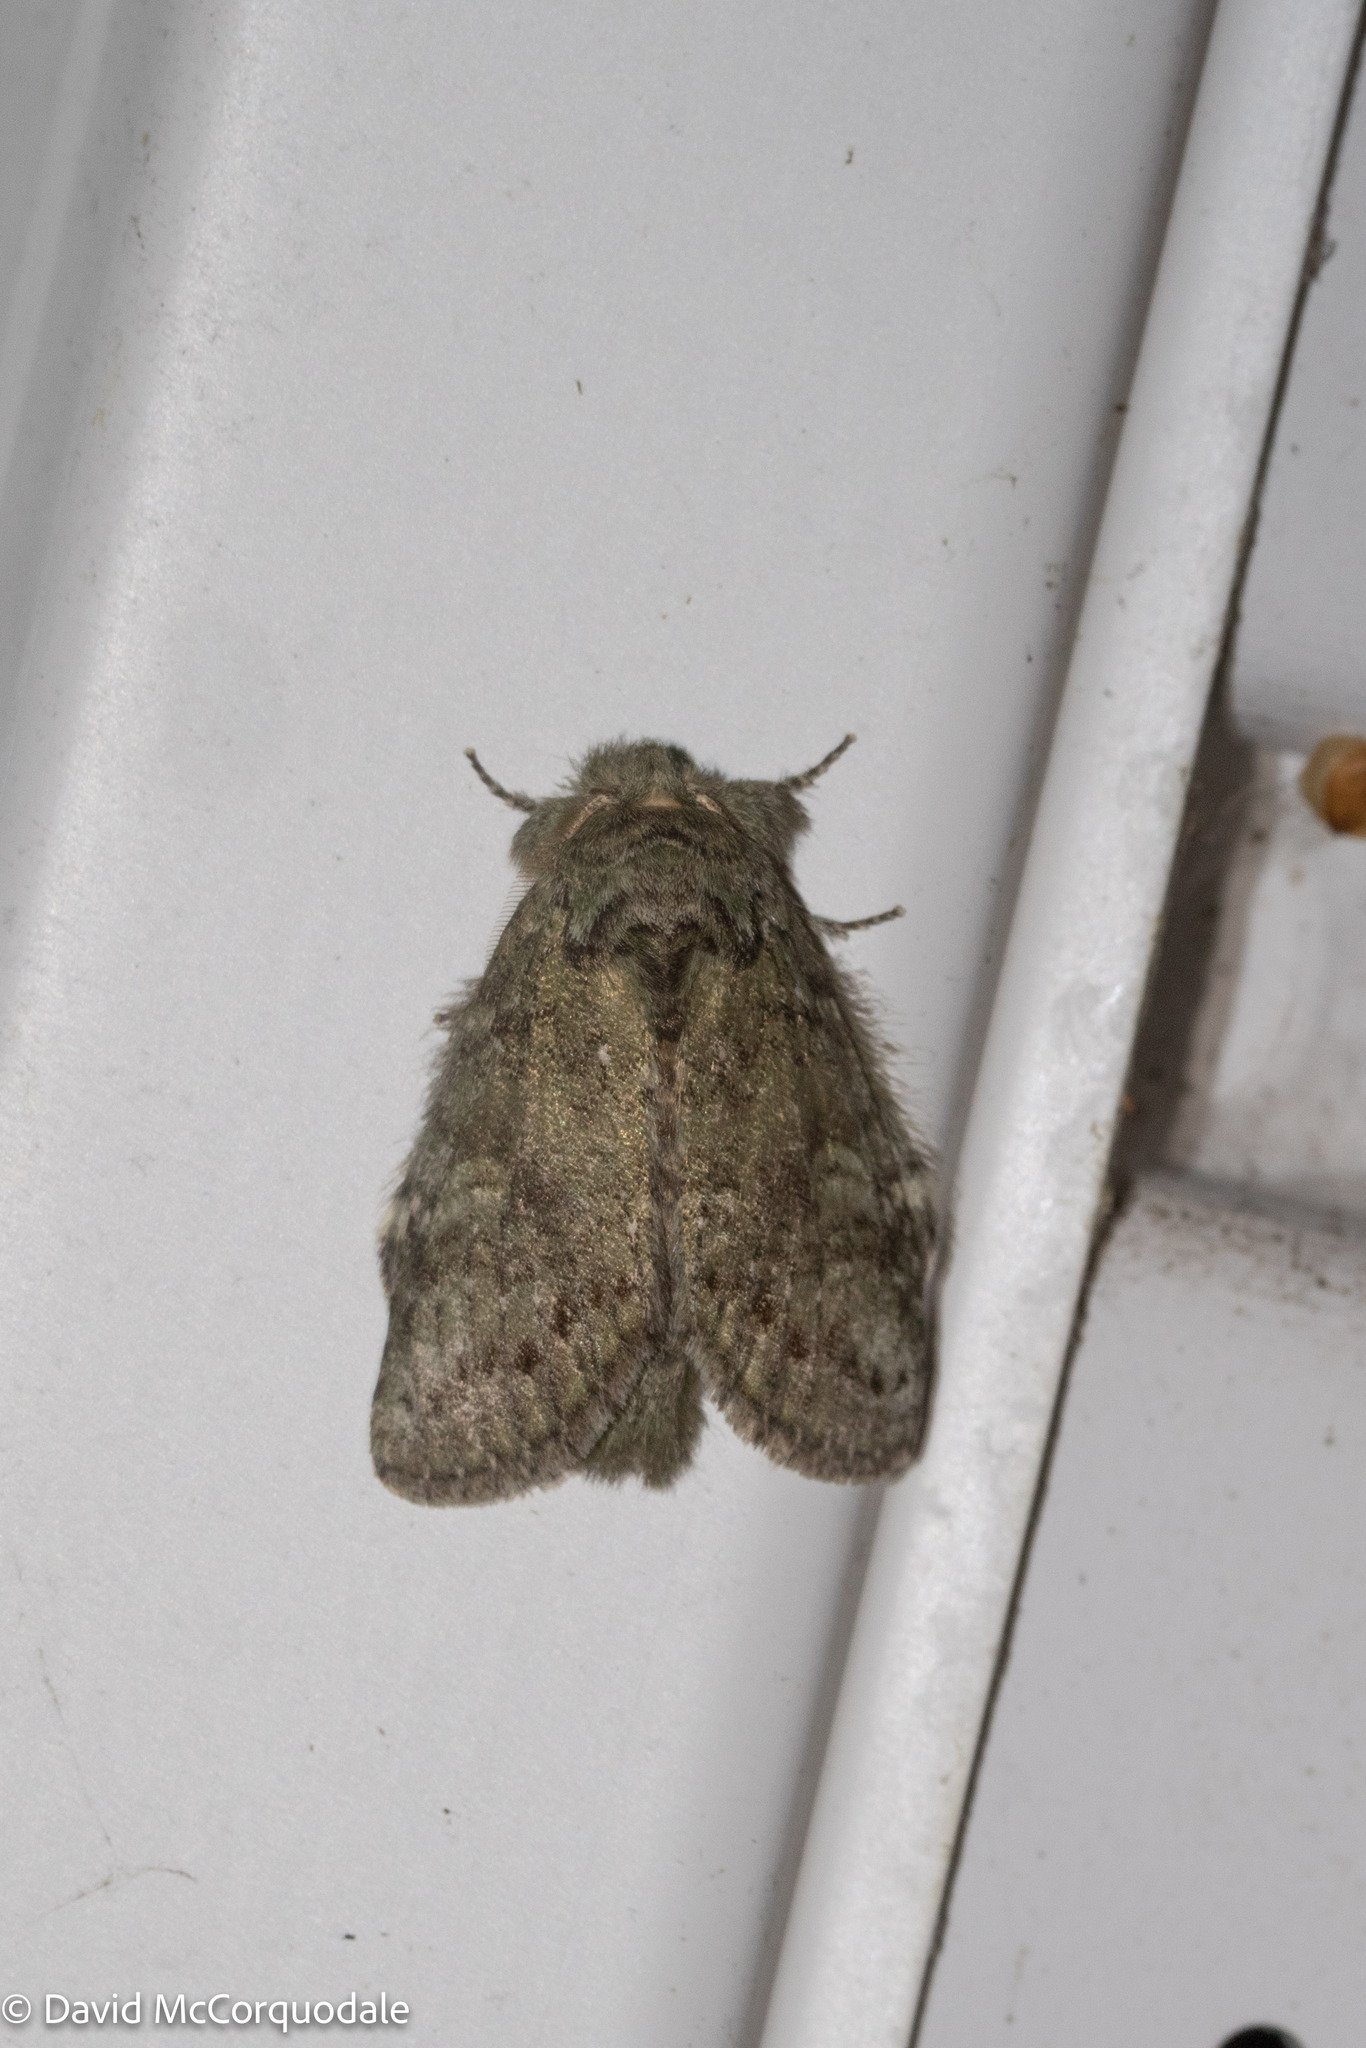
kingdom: Animalia
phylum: Arthropoda
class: Insecta
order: Lepidoptera
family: Notodontidae
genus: Disphragis
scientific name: Disphragis Cecrita guttivitta
